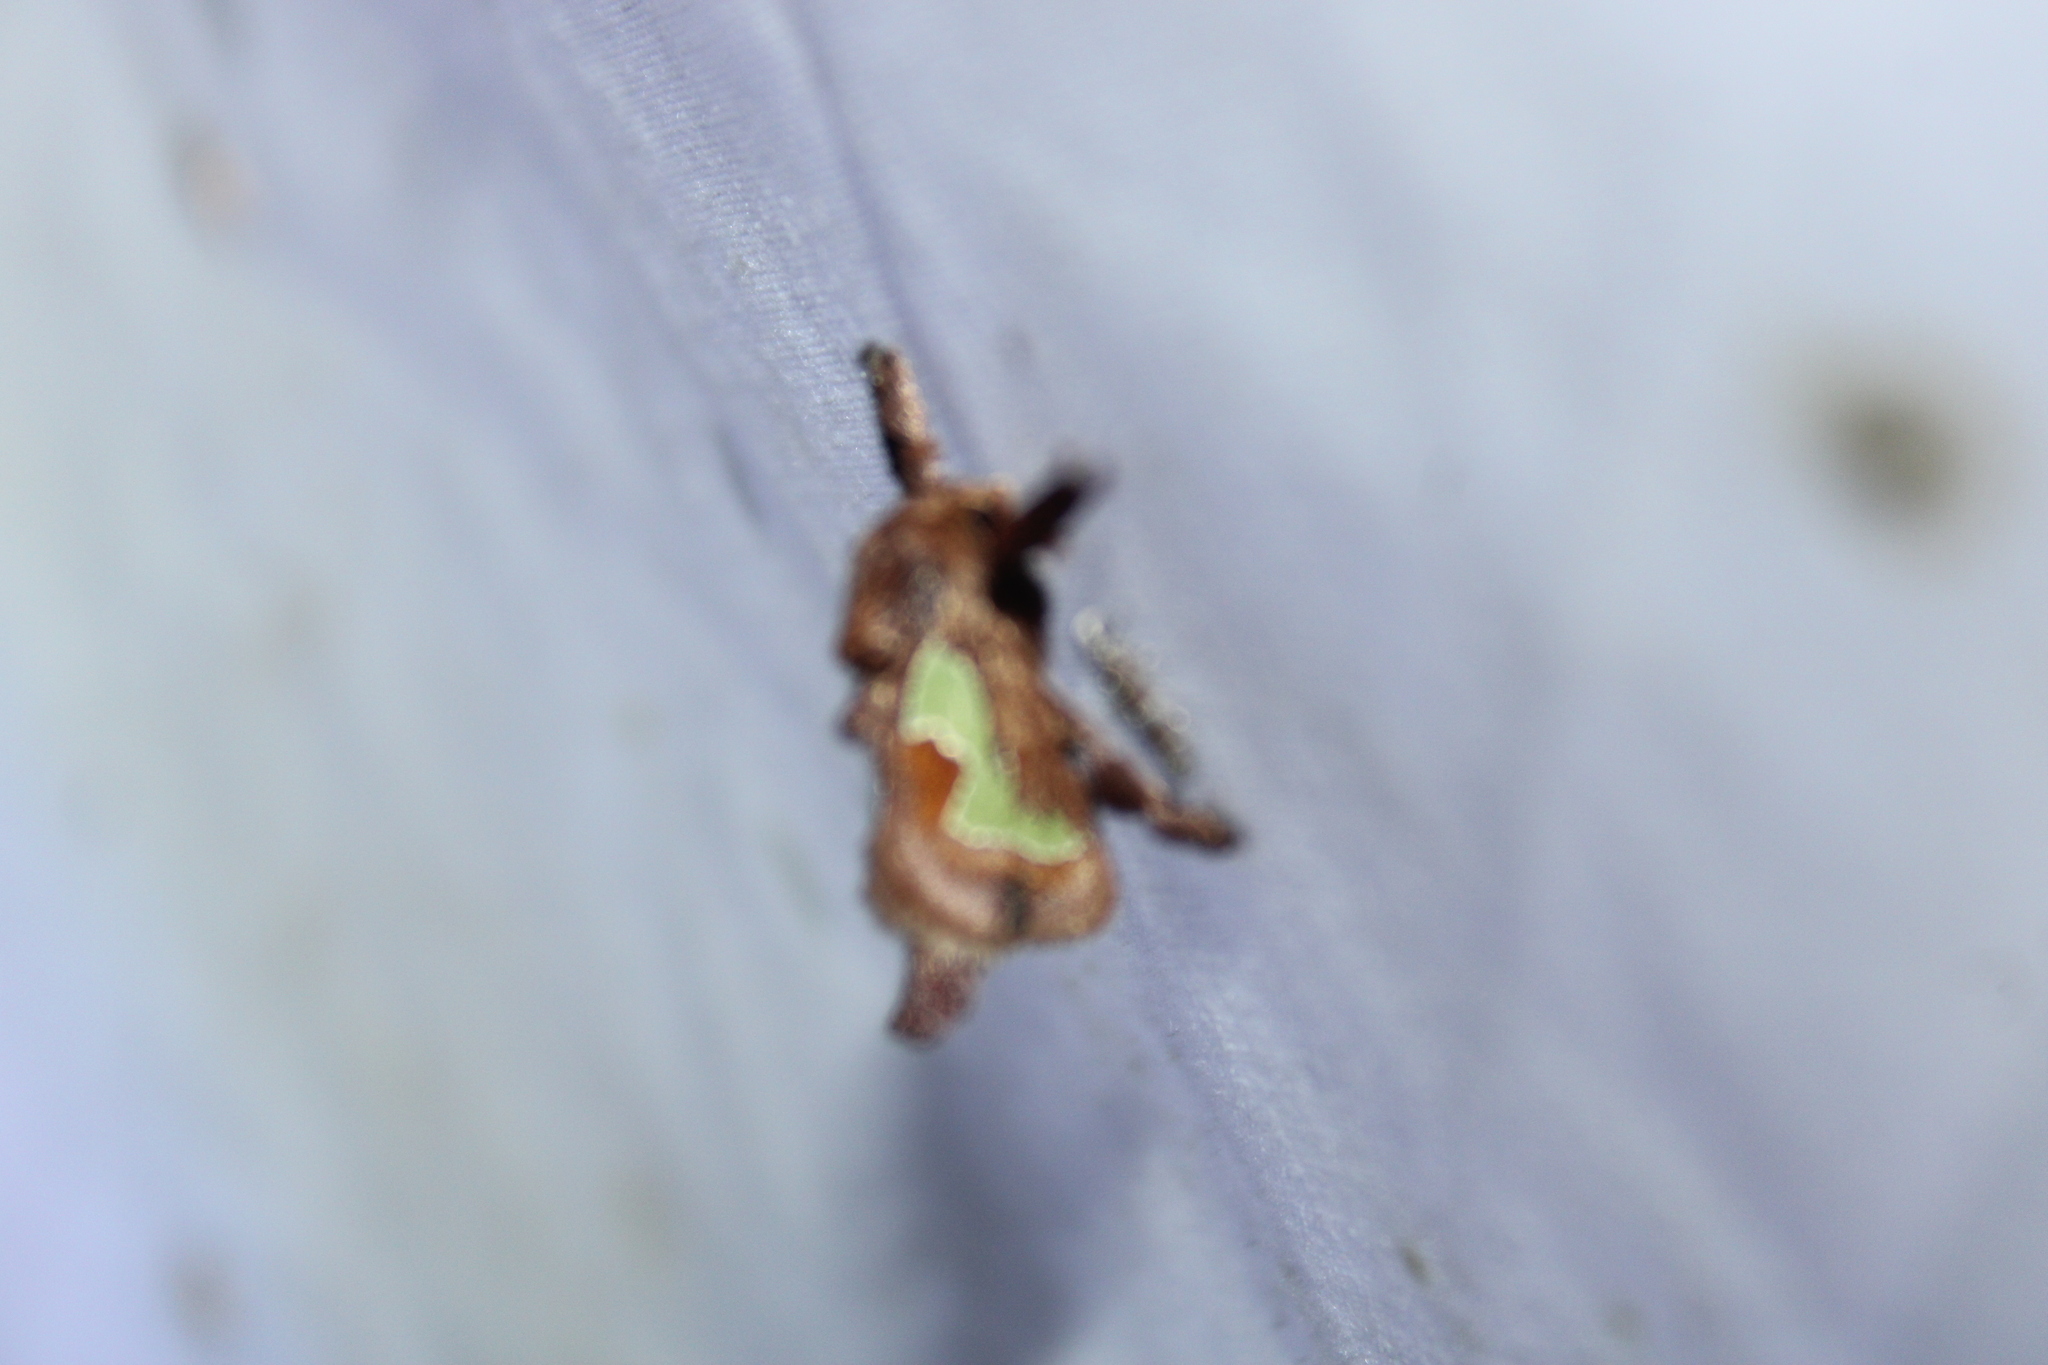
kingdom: Animalia
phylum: Arthropoda
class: Insecta
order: Lepidoptera
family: Limacodidae
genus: Euclea
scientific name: Euclea delphinii
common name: Spiny oak-slug moth
